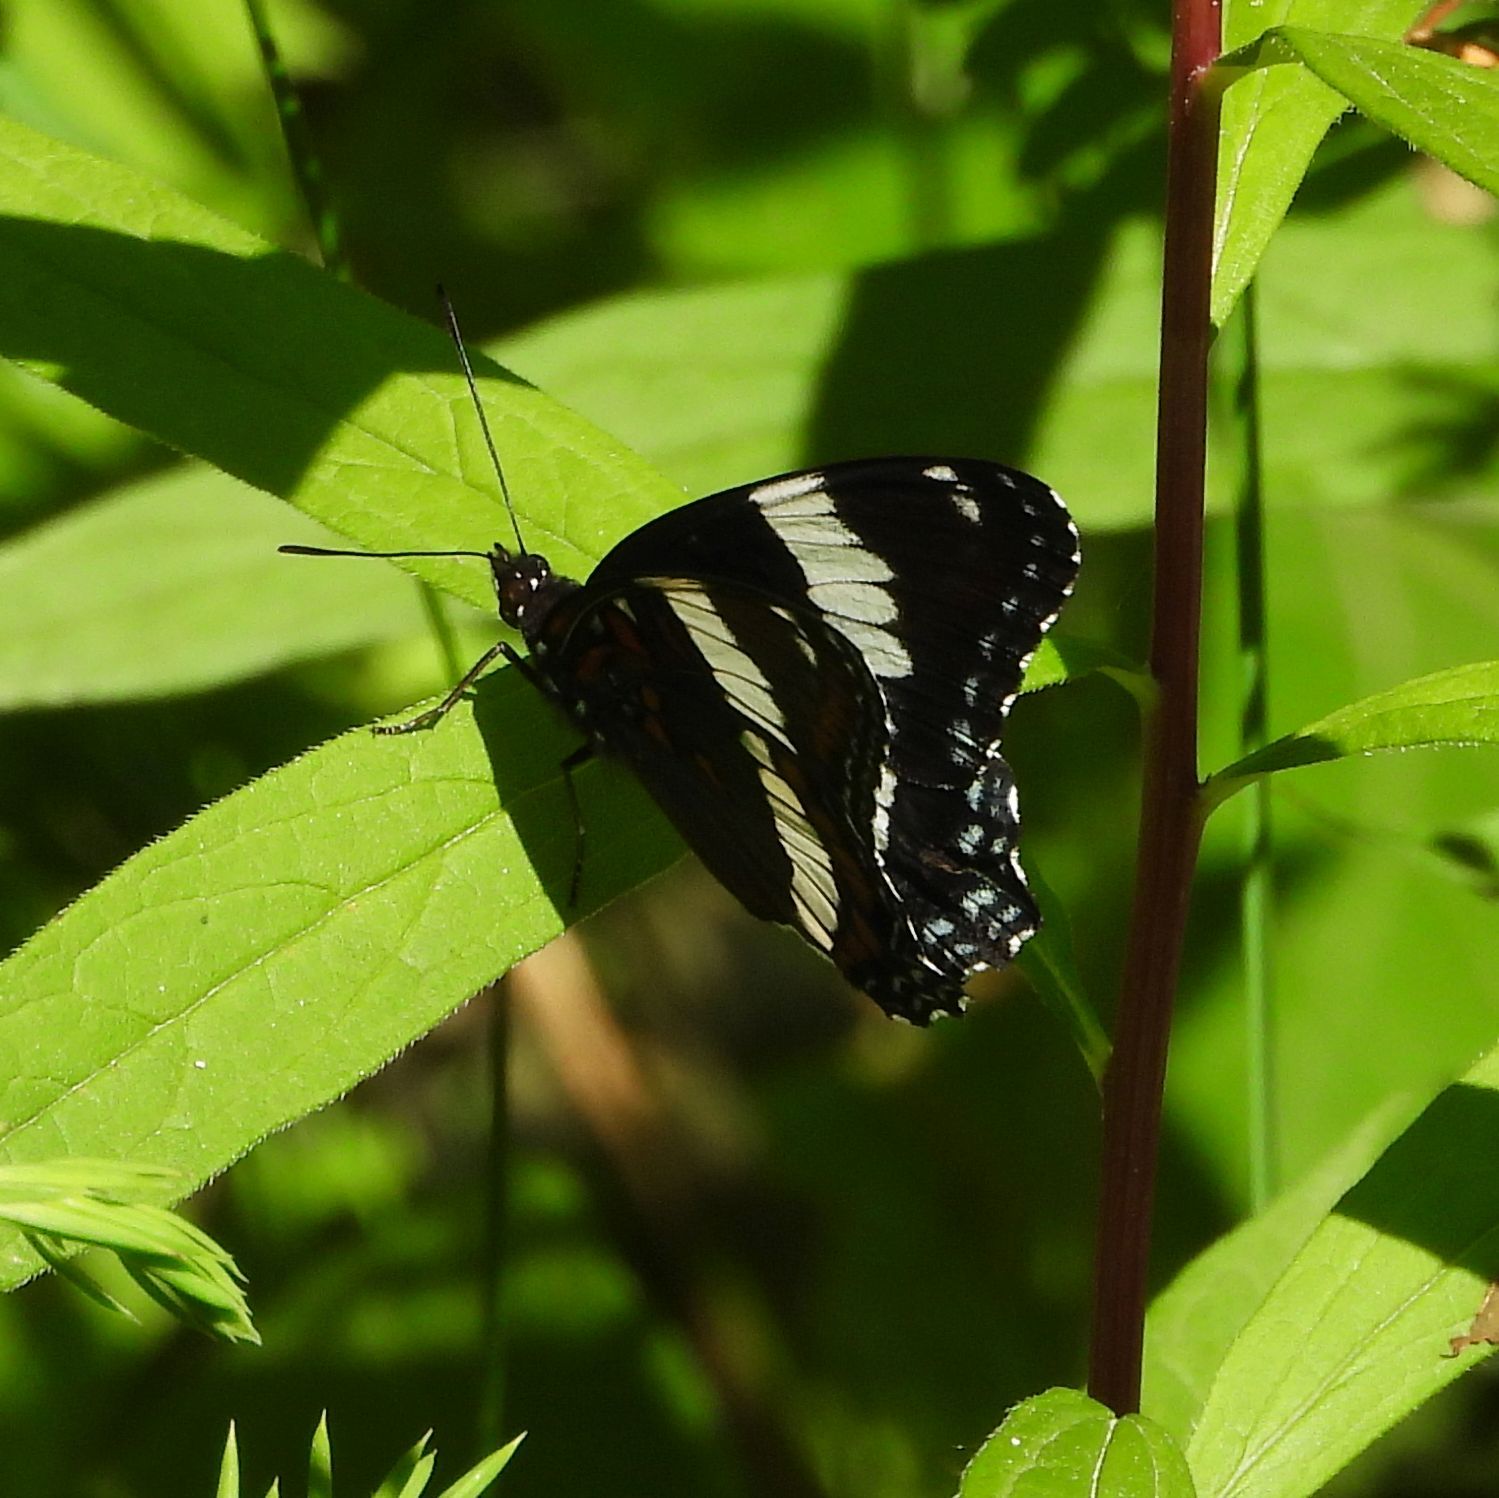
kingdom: Animalia
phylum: Arthropoda
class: Insecta
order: Lepidoptera
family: Nymphalidae
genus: Limenitis
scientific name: Limenitis arthemis
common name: Red-spotted admiral
